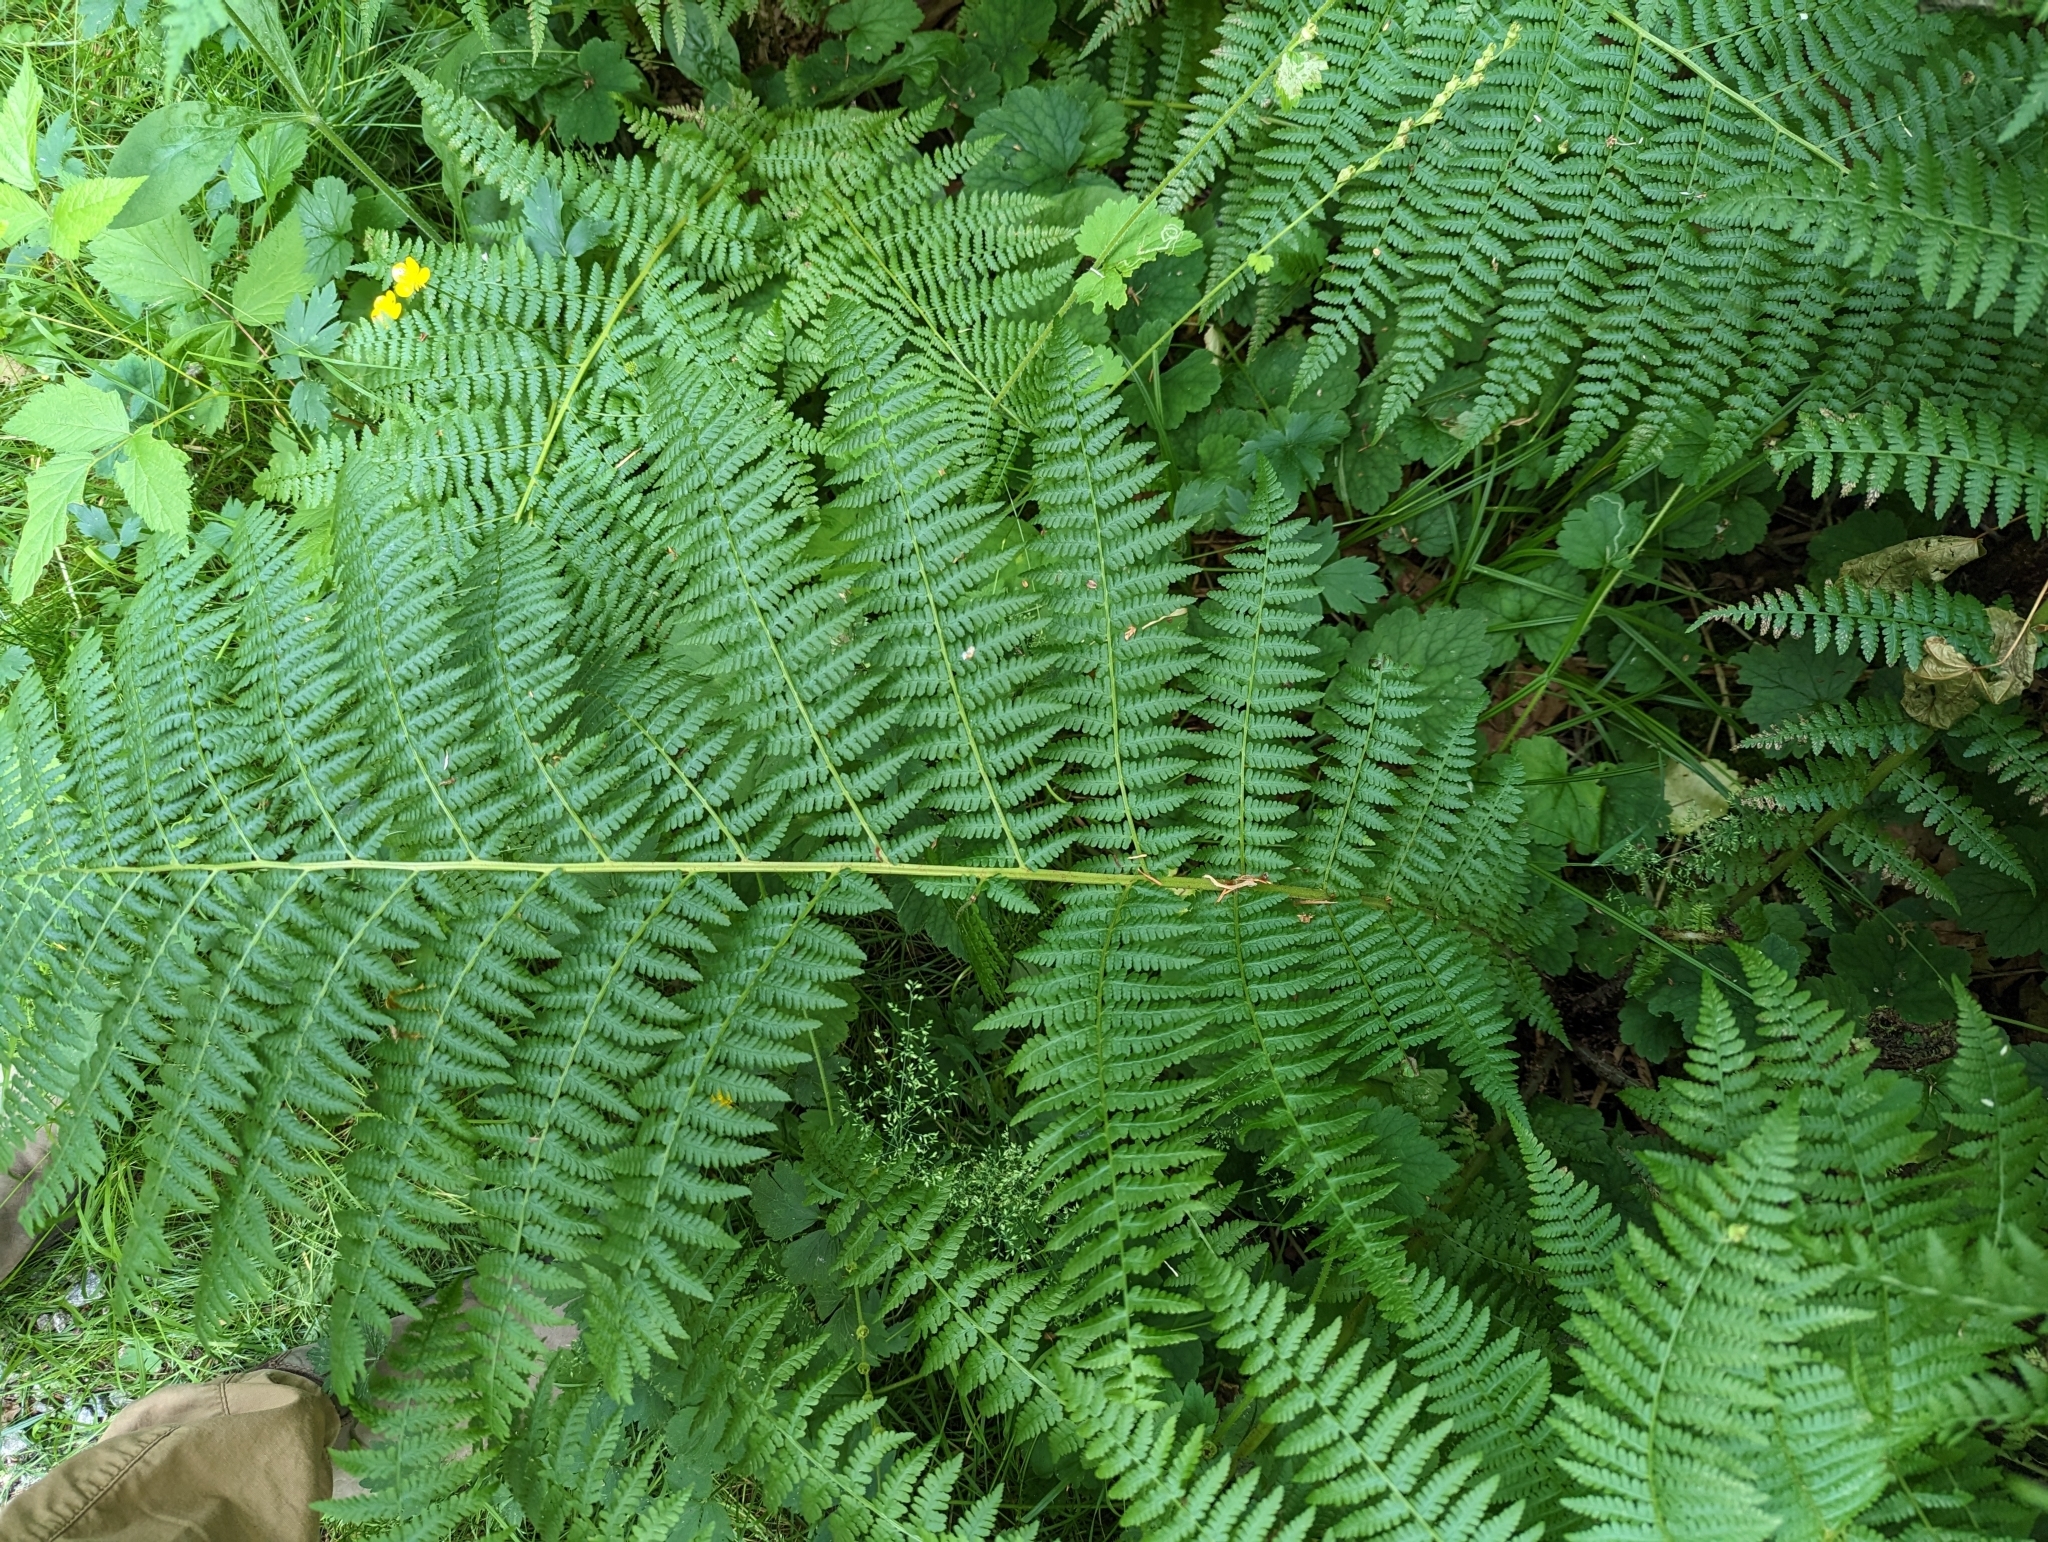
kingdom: Plantae
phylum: Tracheophyta
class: Polypodiopsida
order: Polypodiales
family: Athyriaceae
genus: Athyrium
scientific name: Athyrium filix-femina
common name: Lady fern
